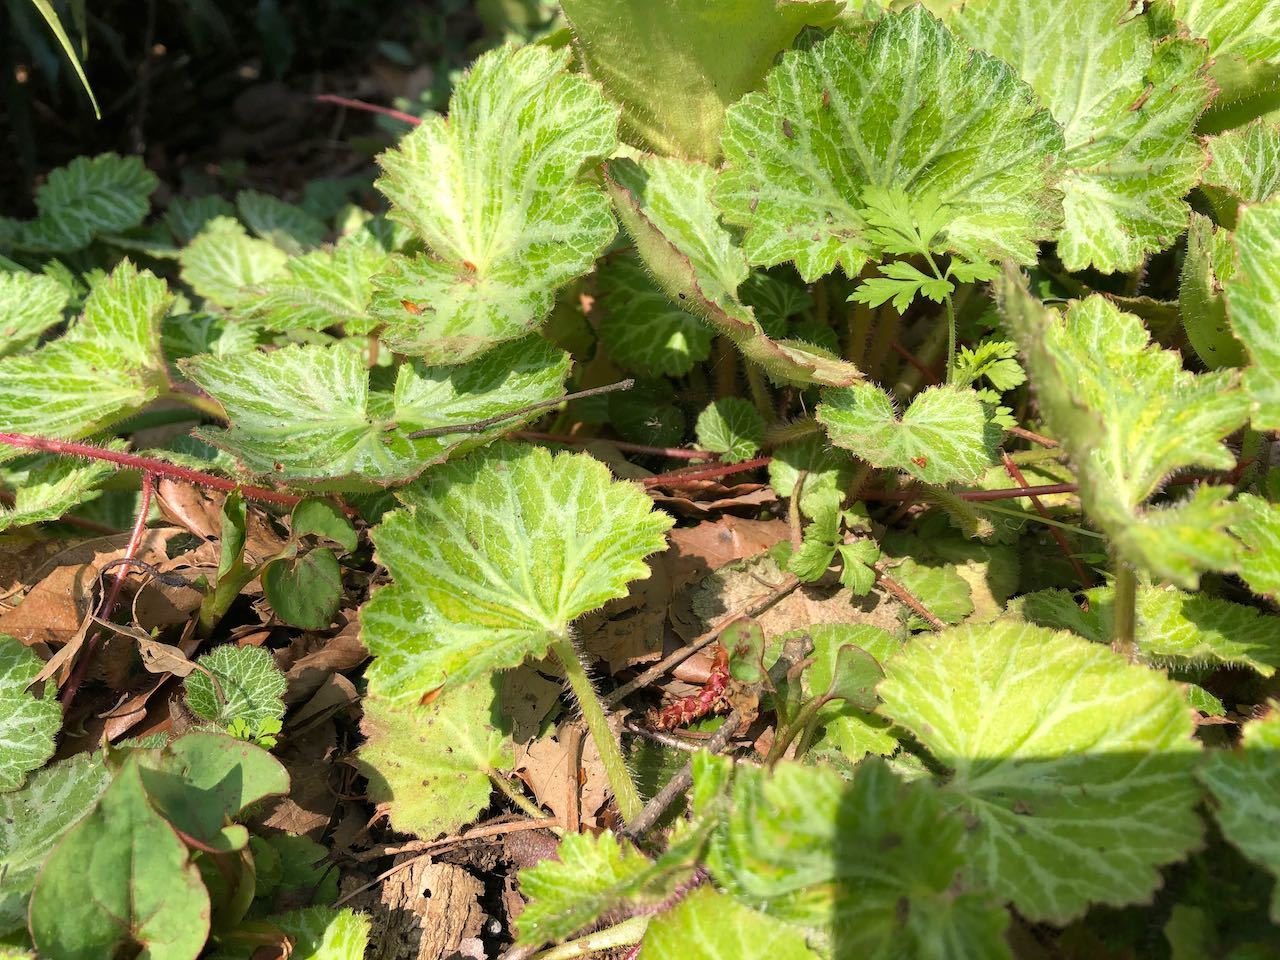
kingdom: Plantae
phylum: Tracheophyta
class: Magnoliopsida
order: Saxifragales
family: Saxifragaceae
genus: Saxifraga
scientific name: Saxifraga stolonifera
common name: Creeping saxifrage
